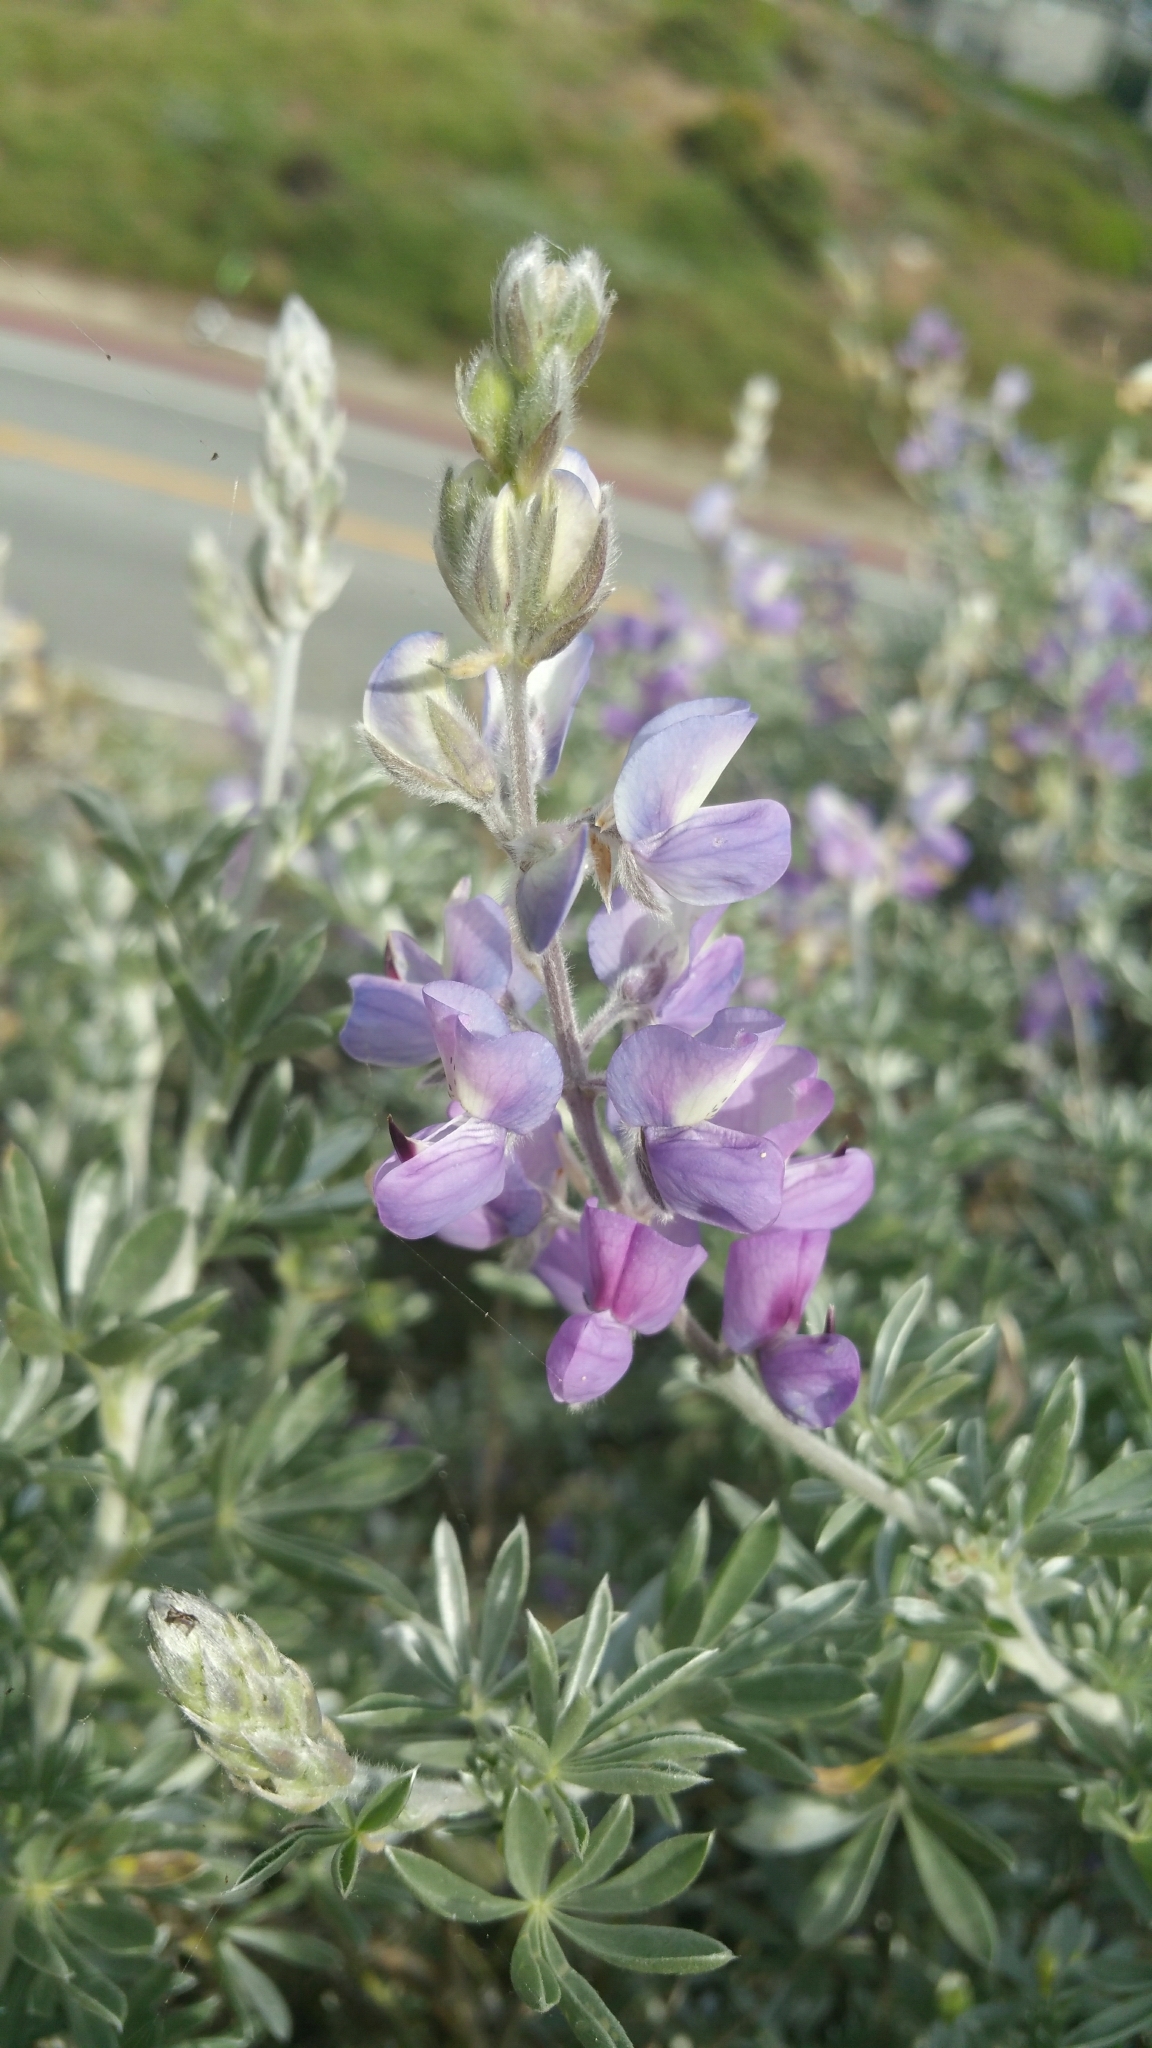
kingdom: Plantae
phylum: Tracheophyta
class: Magnoliopsida
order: Fabales
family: Fabaceae
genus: Lupinus
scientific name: Lupinus chamissonis
